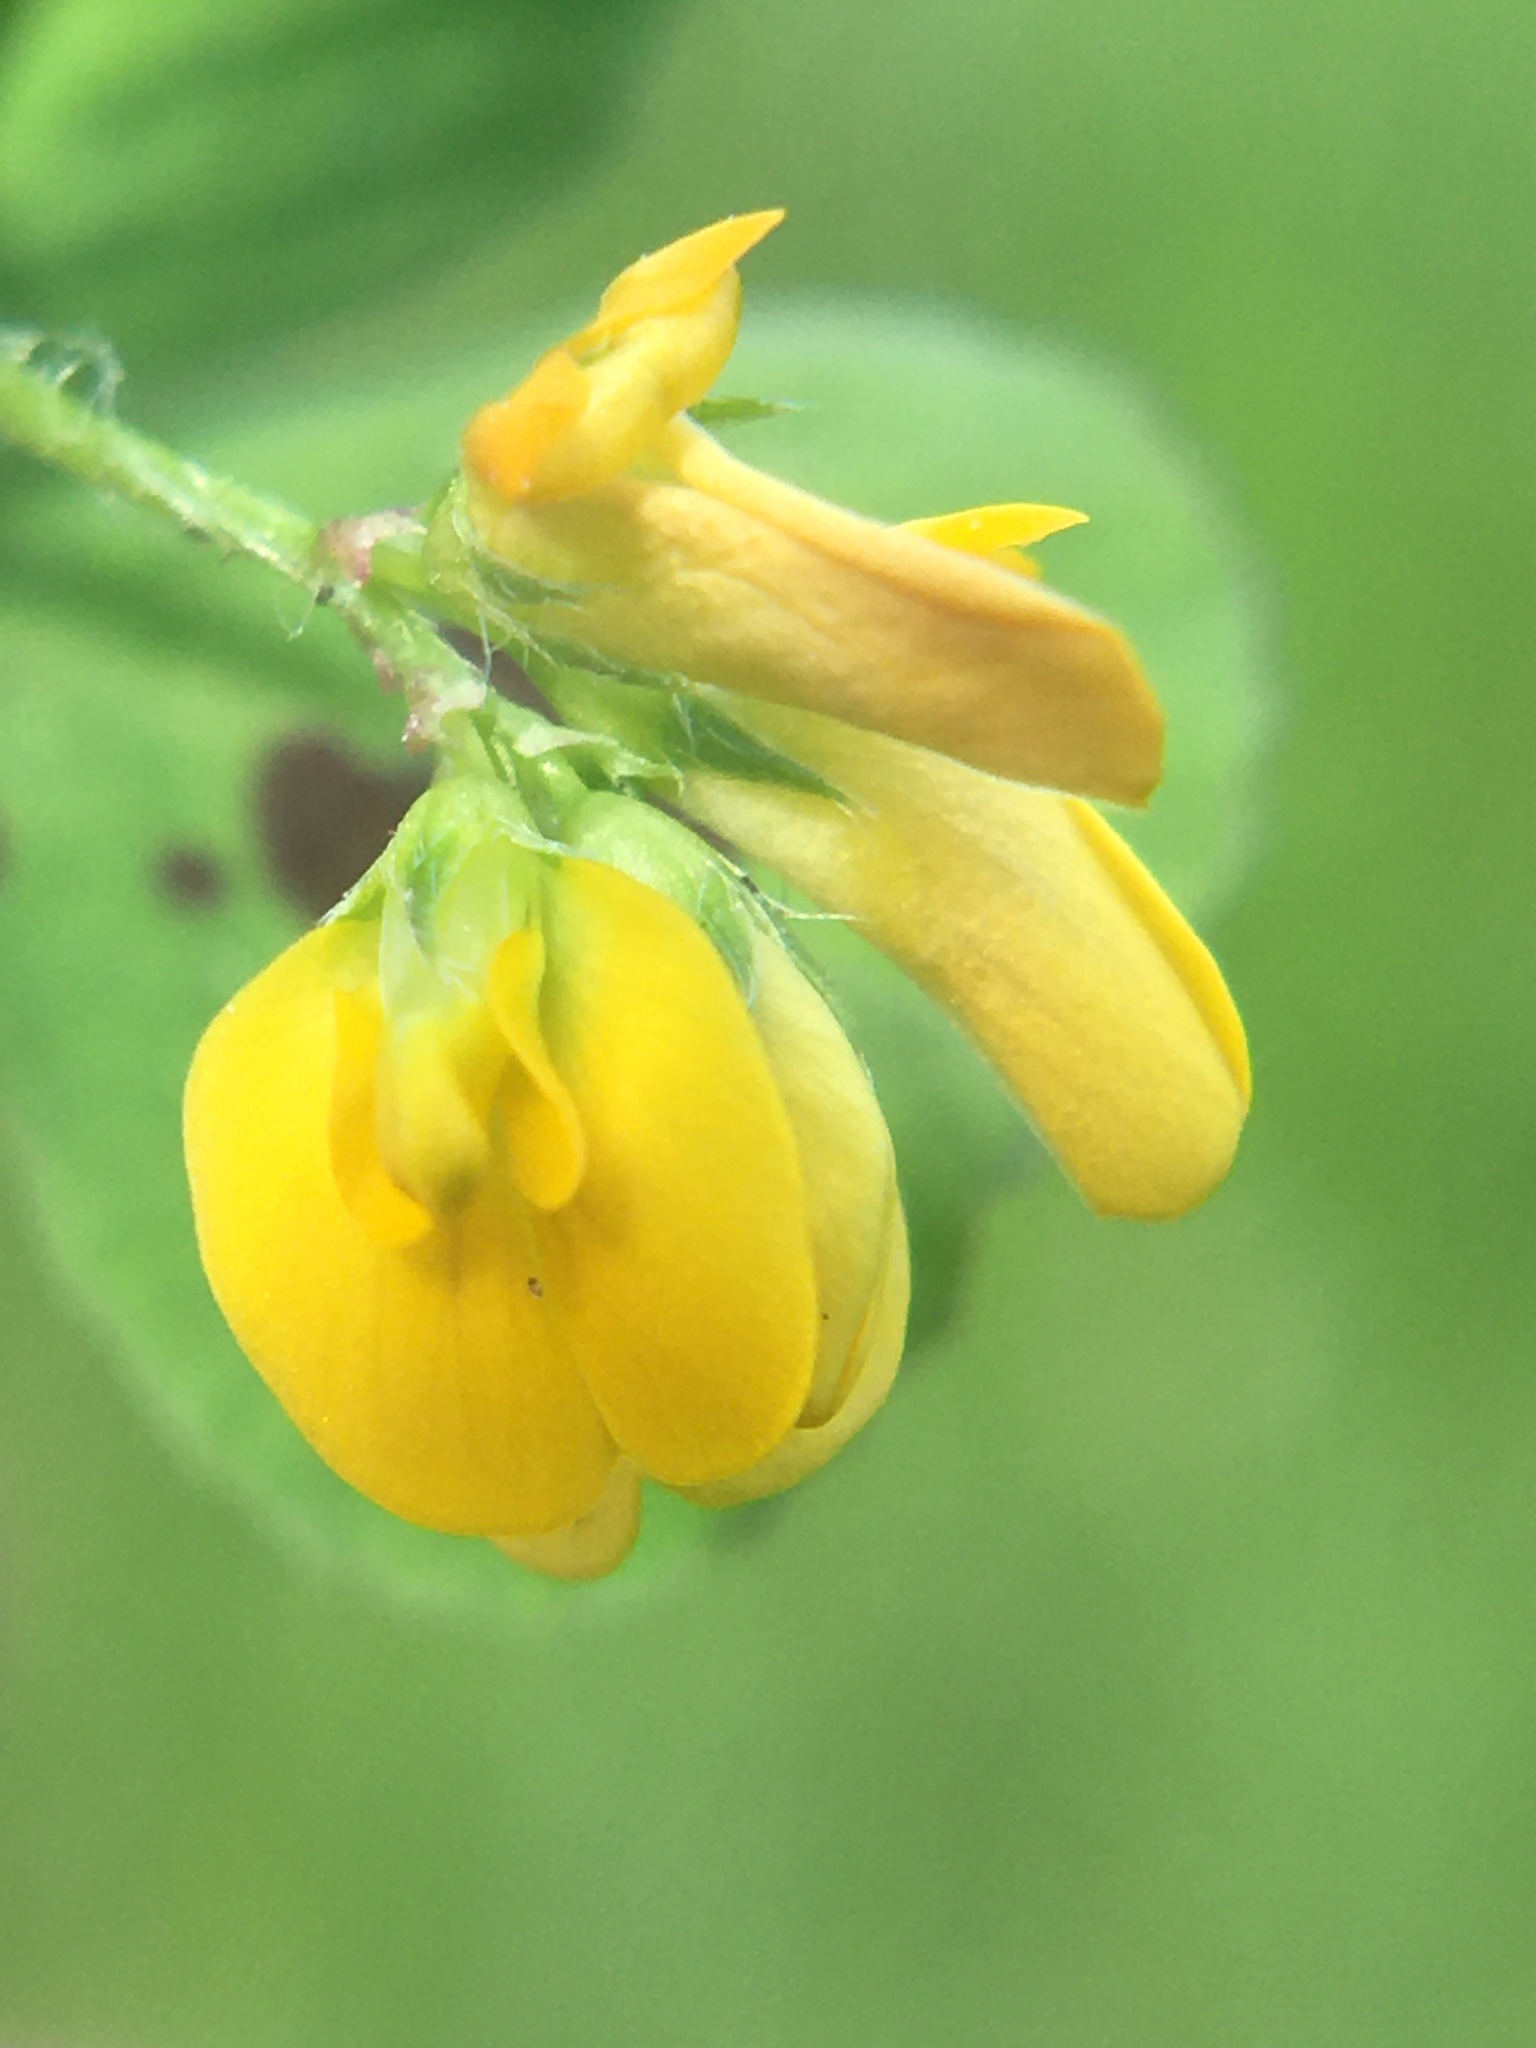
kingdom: Plantae
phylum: Tracheophyta
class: Magnoliopsida
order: Fabales
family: Fabaceae
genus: Medicago
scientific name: Medicago arabica
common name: Spotted medick
